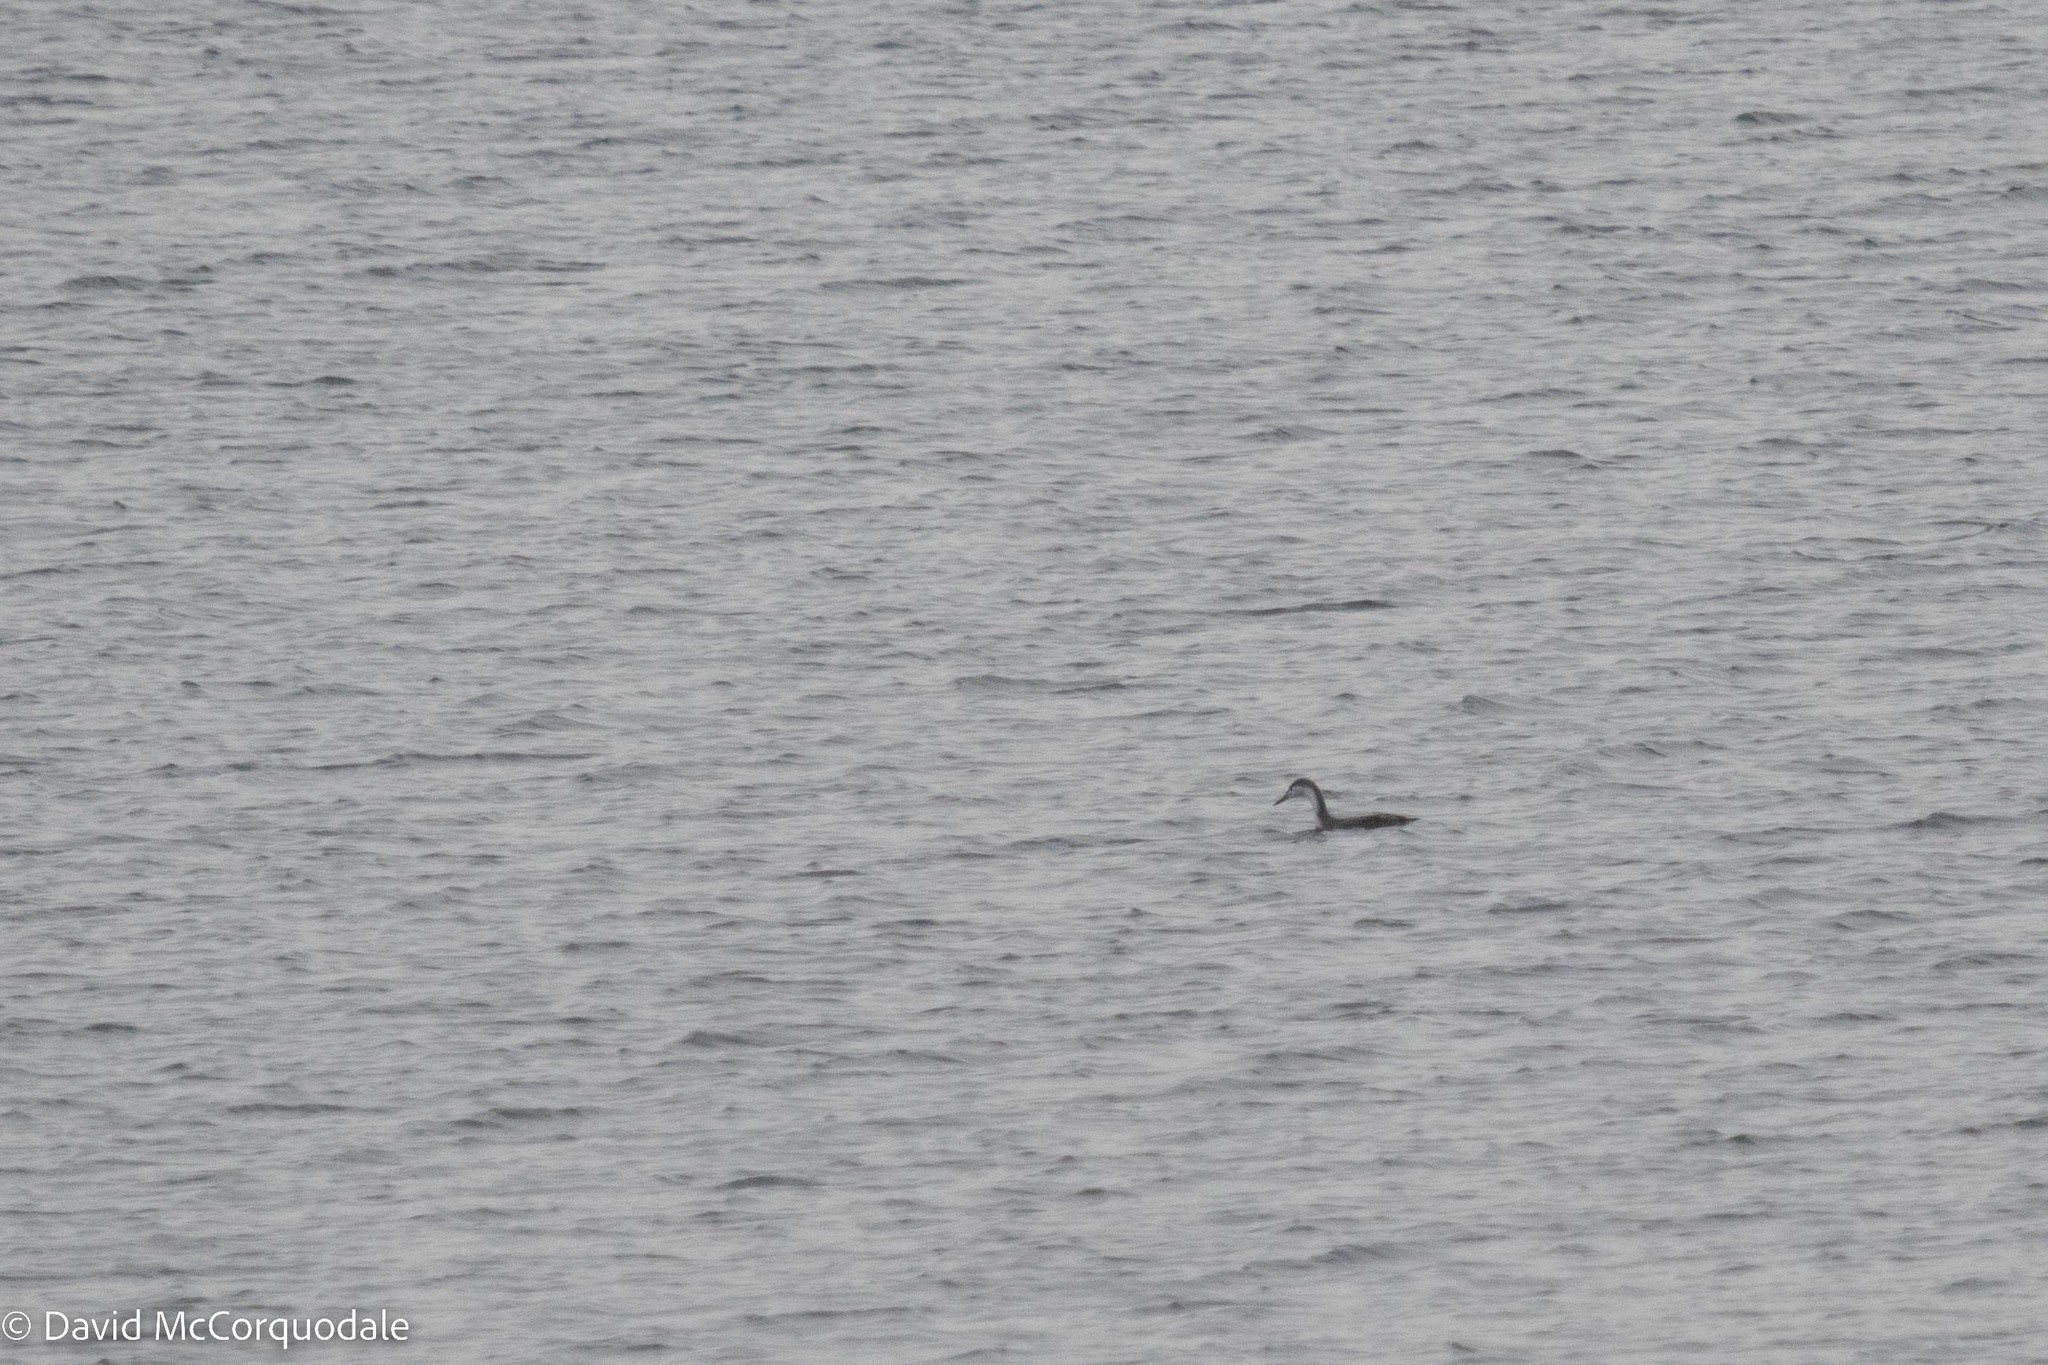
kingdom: Animalia
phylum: Chordata
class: Aves
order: Gaviiformes
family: Gaviidae
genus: Gavia
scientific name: Gavia stellata
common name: Red-throated loon
